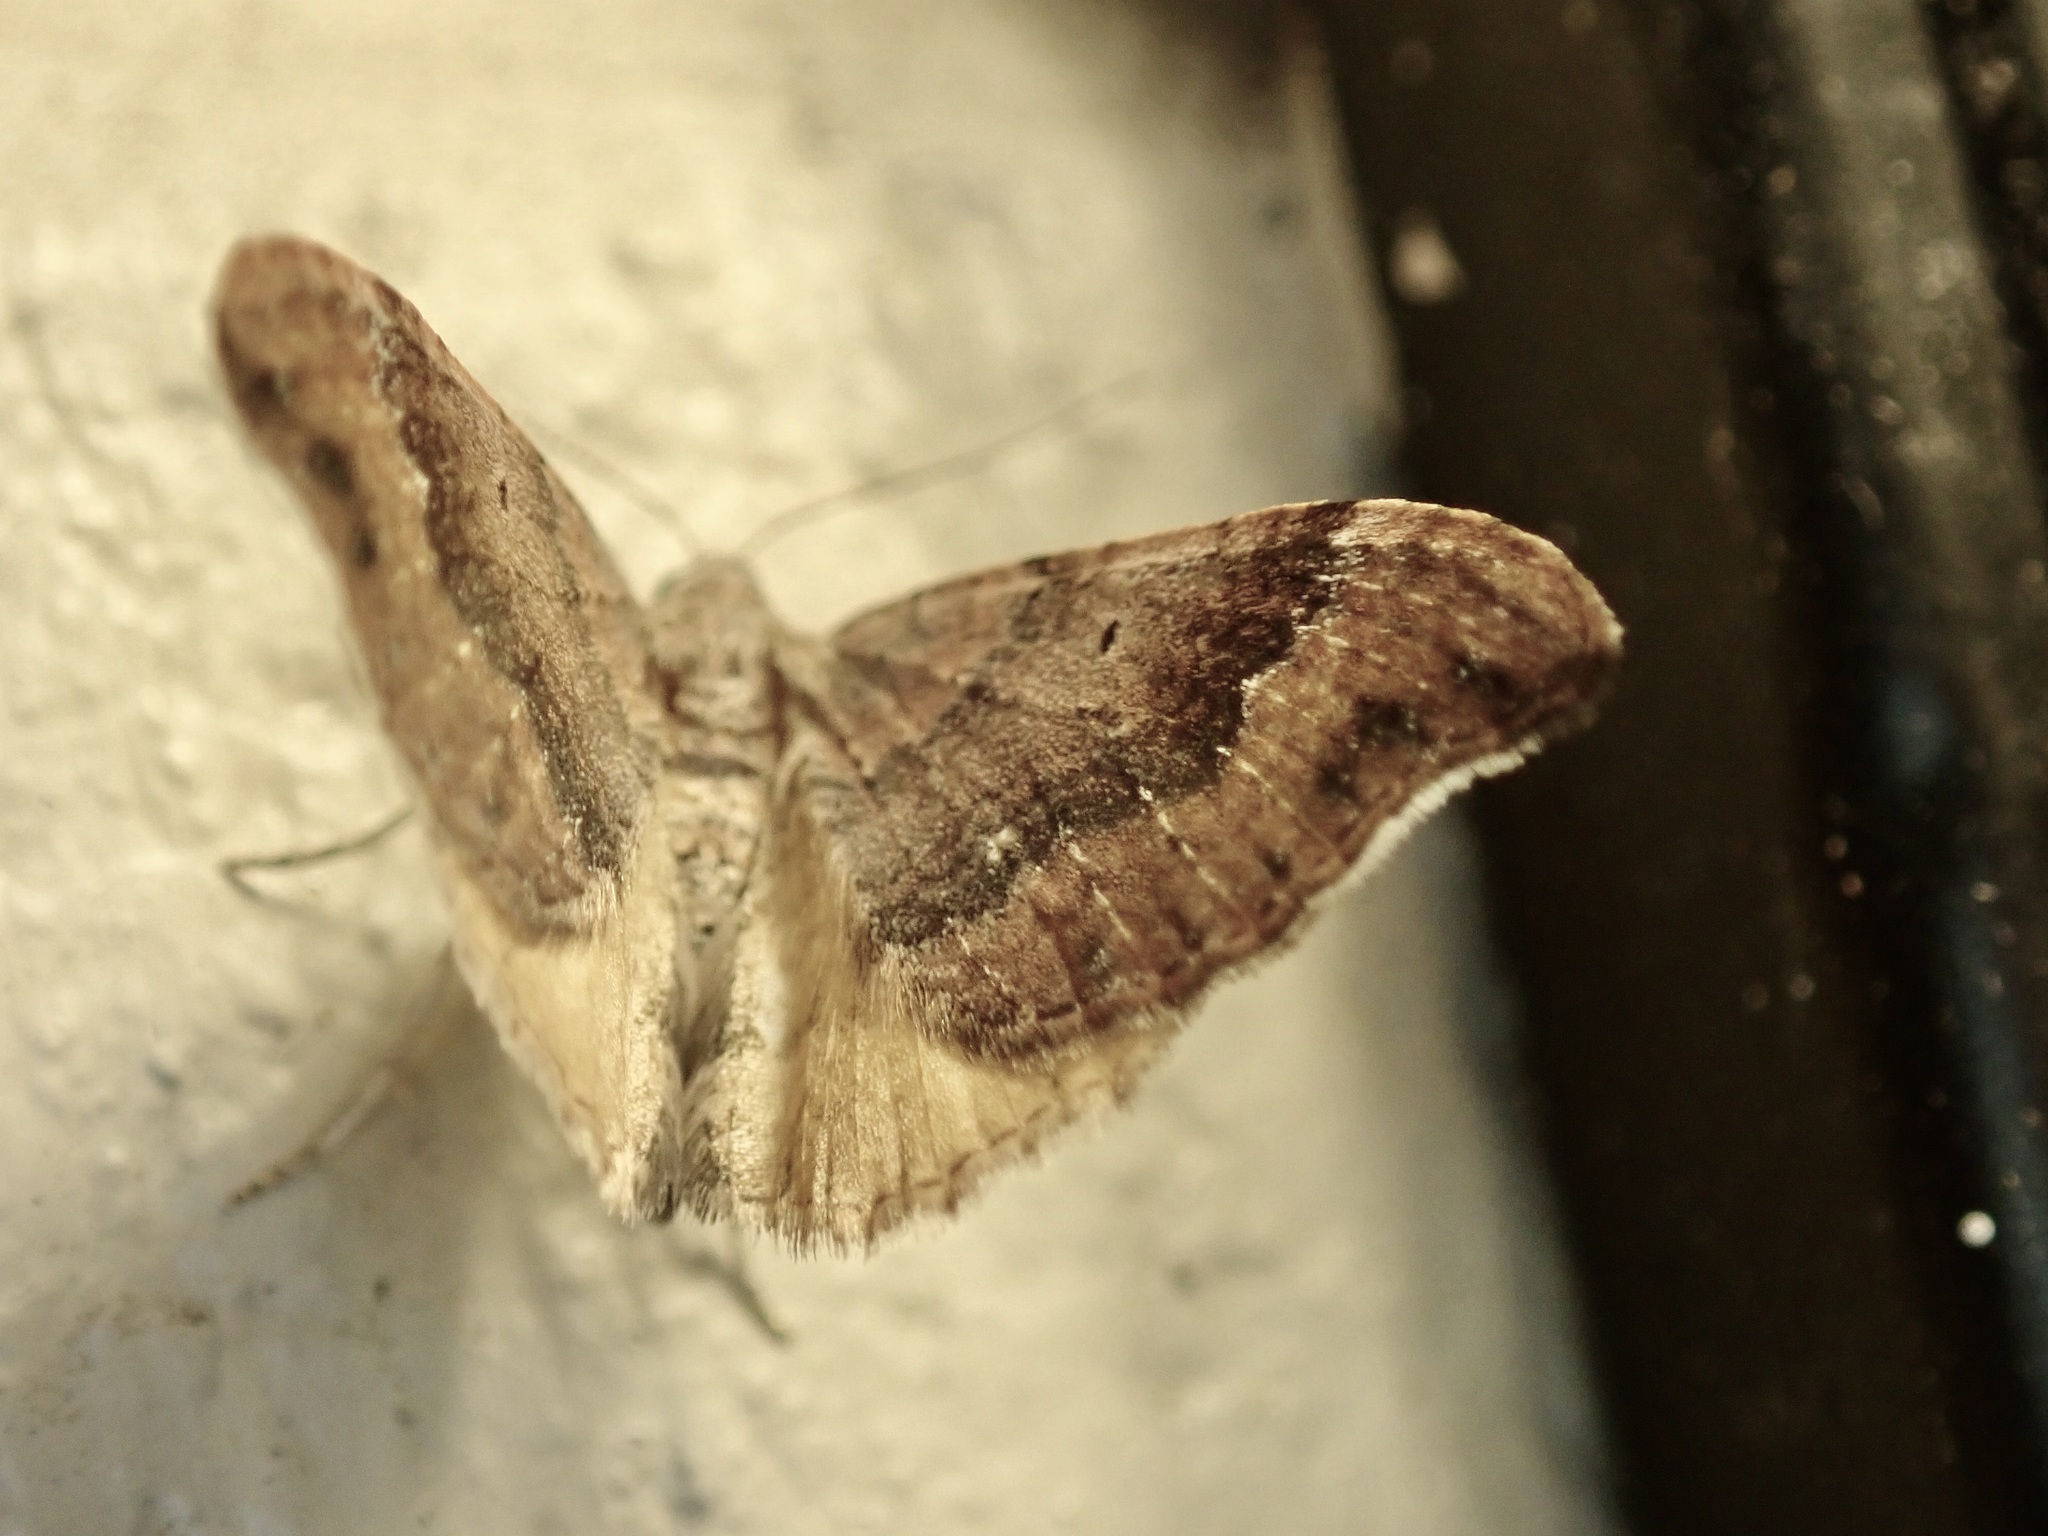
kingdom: Animalia
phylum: Arthropoda
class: Insecta
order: Lepidoptera
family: Geometridae
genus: Homodotis
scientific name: Homodotis megaspilata
